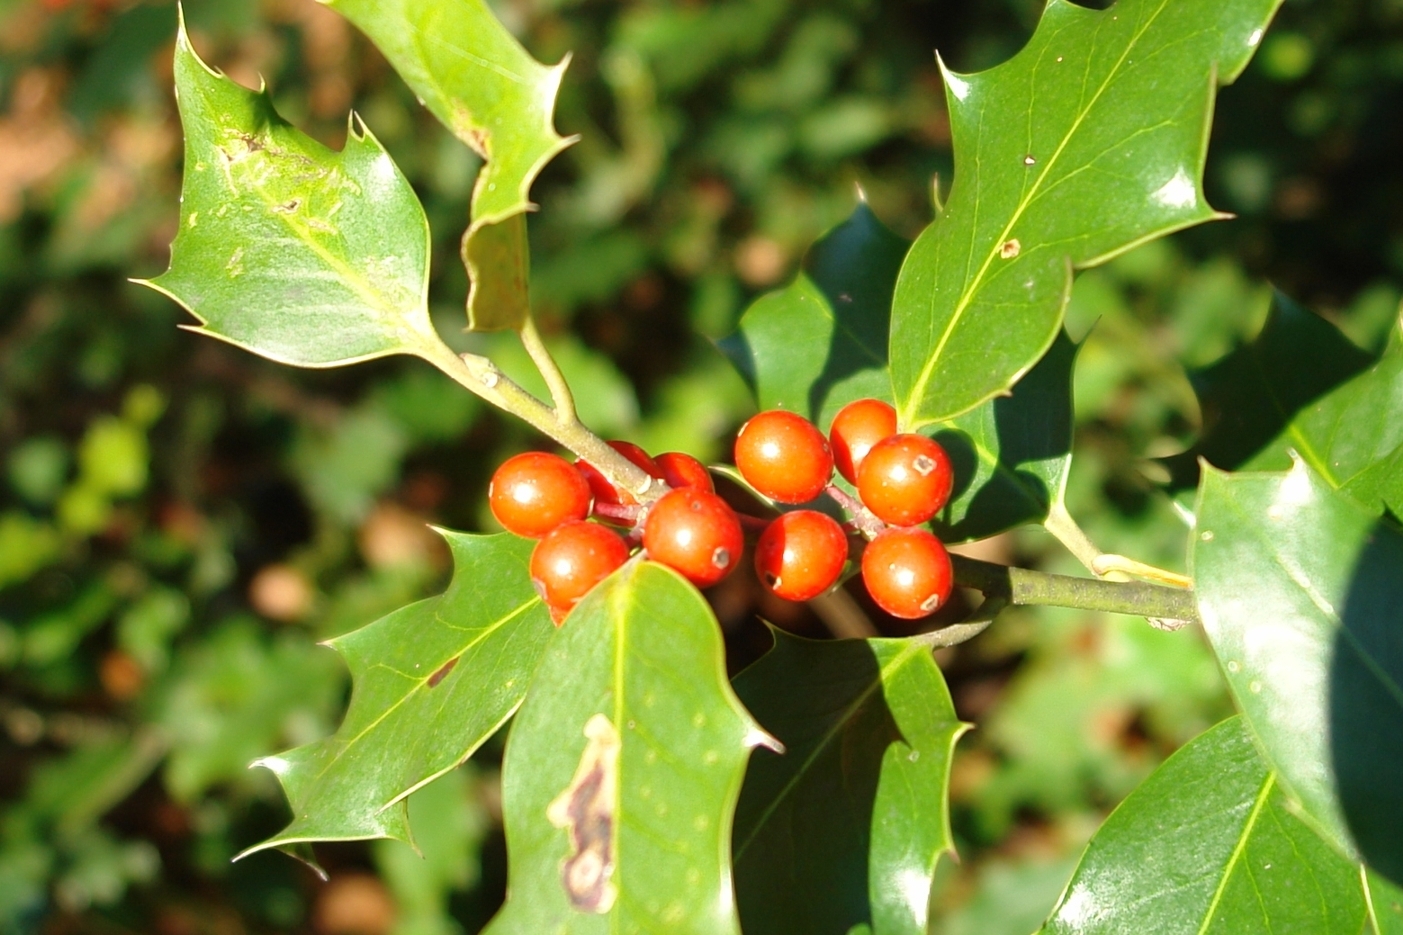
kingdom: Plantae
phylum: Tracheophyta
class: Magnoliopsida
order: Aquifoliales
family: Aquifoliaceae
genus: Ilex
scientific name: Ilex aquifolium
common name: English holly
